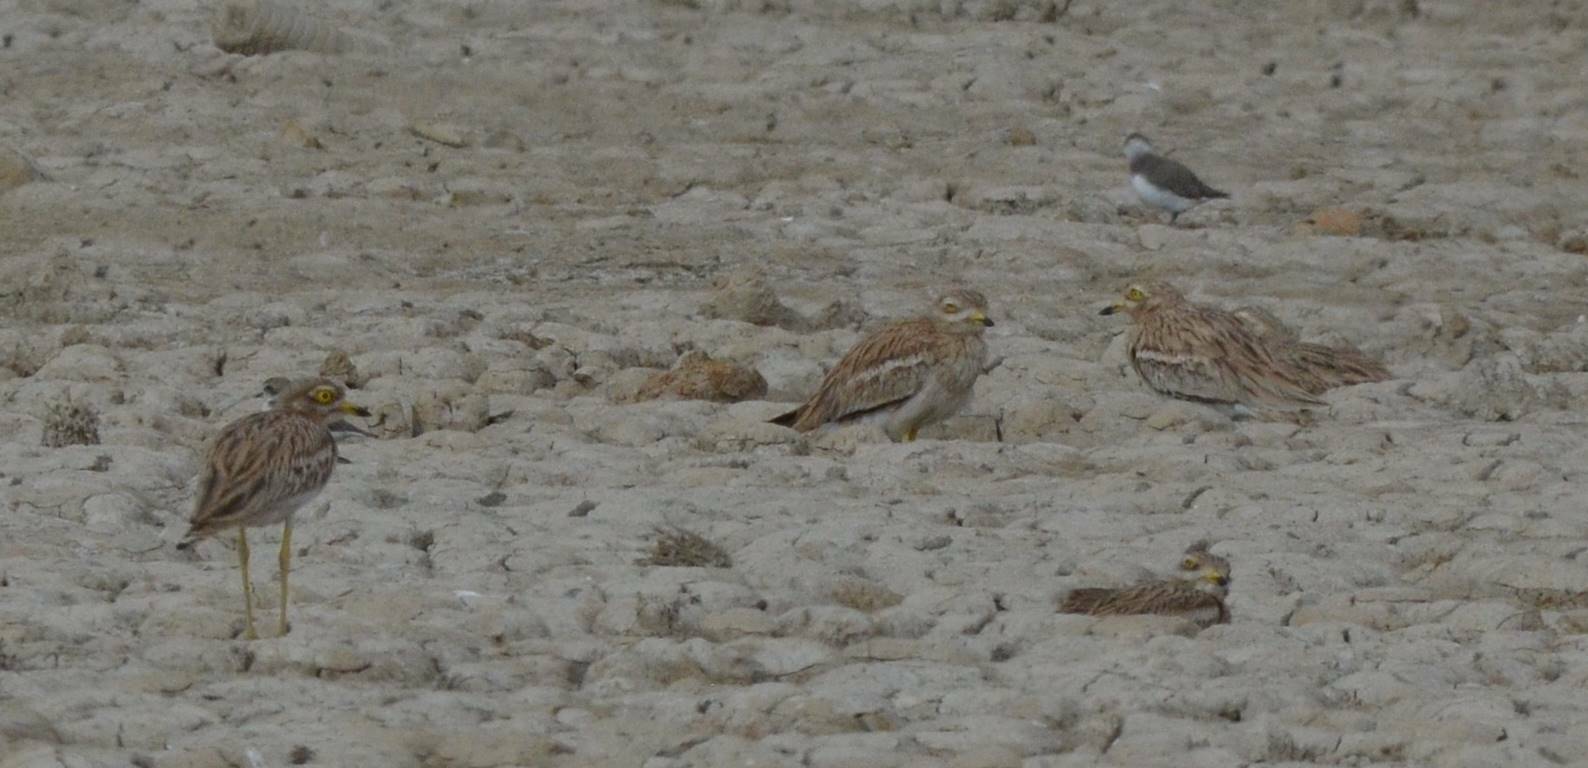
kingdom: Animalia
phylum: Chordata
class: Aves
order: Charadriiformes
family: Burhinidae
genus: Burhinus
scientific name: Burhinus oedicnemus
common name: Eurasian stone-curlew
